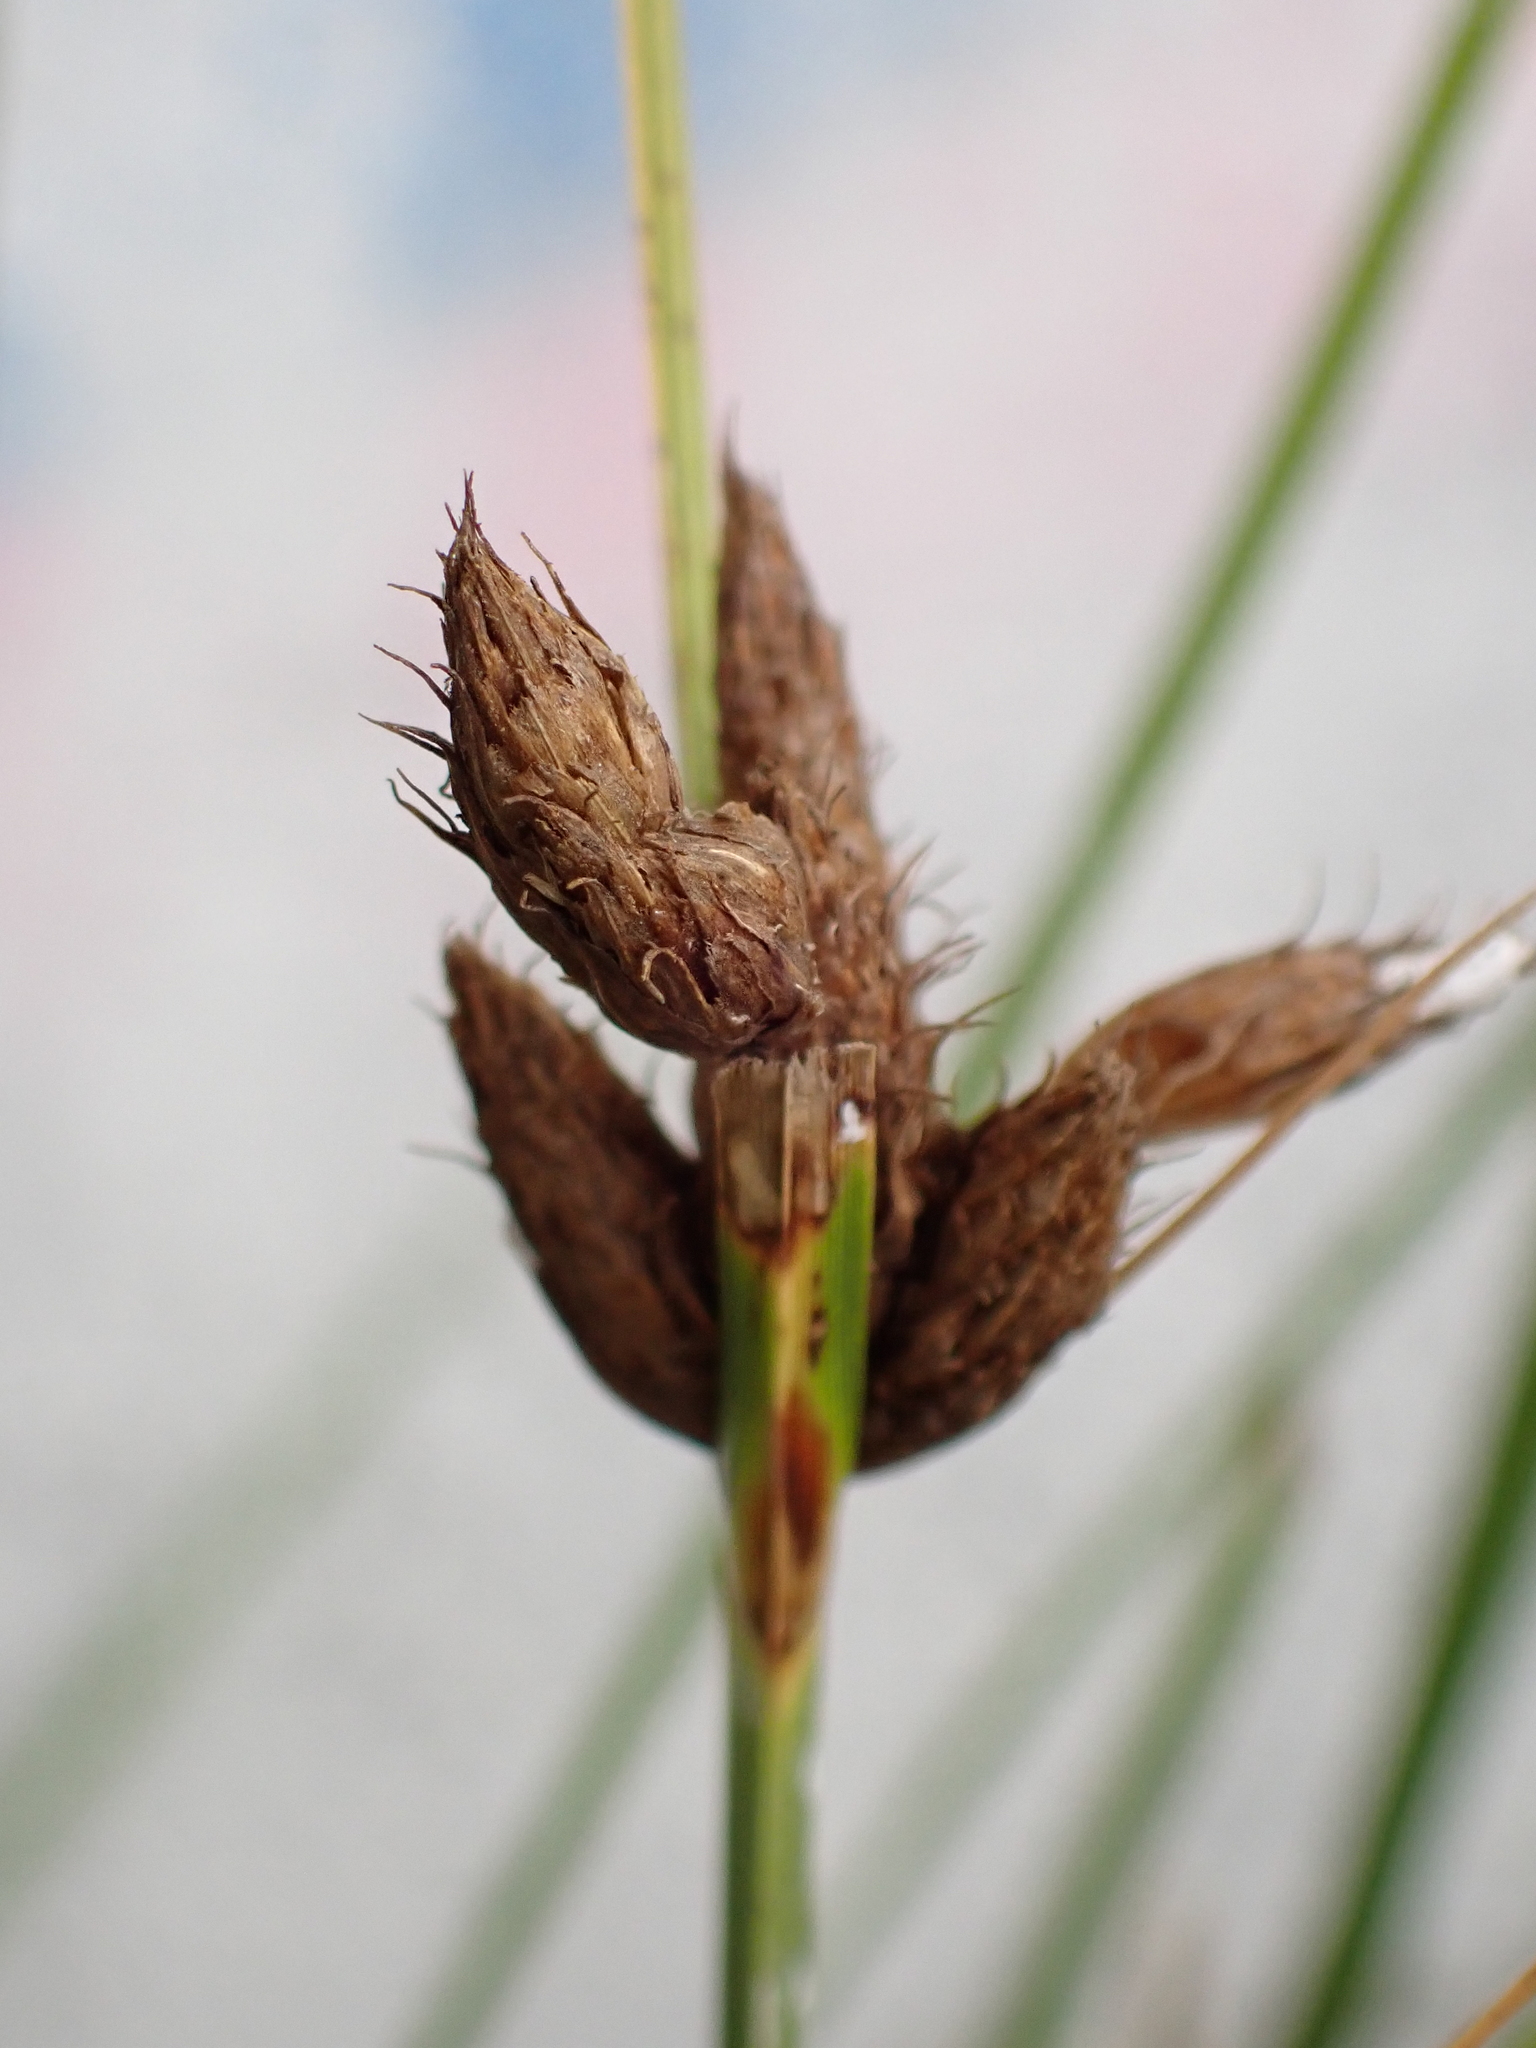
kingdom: Plantae
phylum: Tracheophyta
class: Liliopsida
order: Poales
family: Cyperaceae
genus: Bolboschoenus
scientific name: Bolboschoenus maritimus
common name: Sea club-rush
